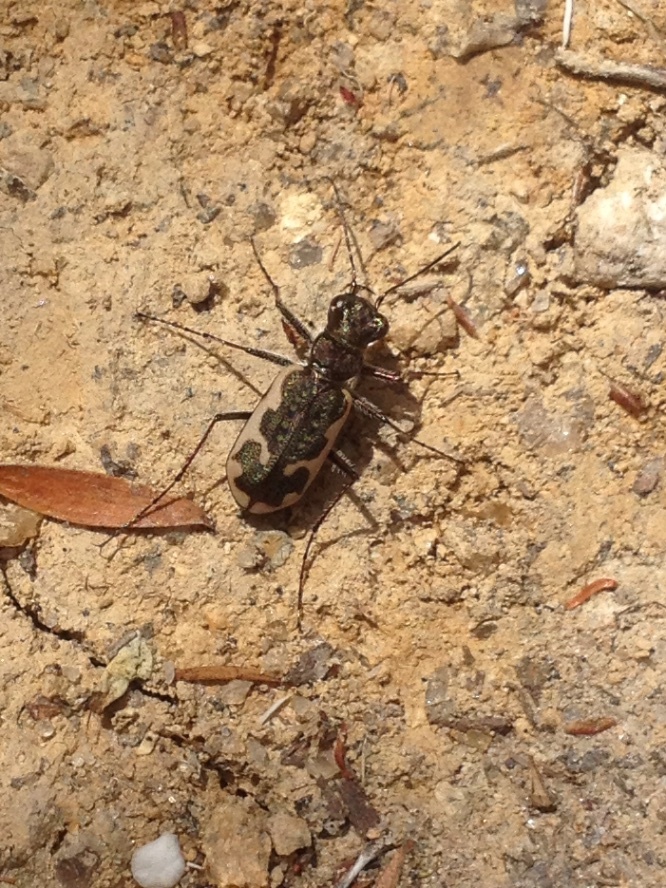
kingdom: Animalia
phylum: Arthropoda
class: Insecta
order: Coleoptera
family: Carabidae
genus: Neocicindela
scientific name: Neocicindela tuberculata
